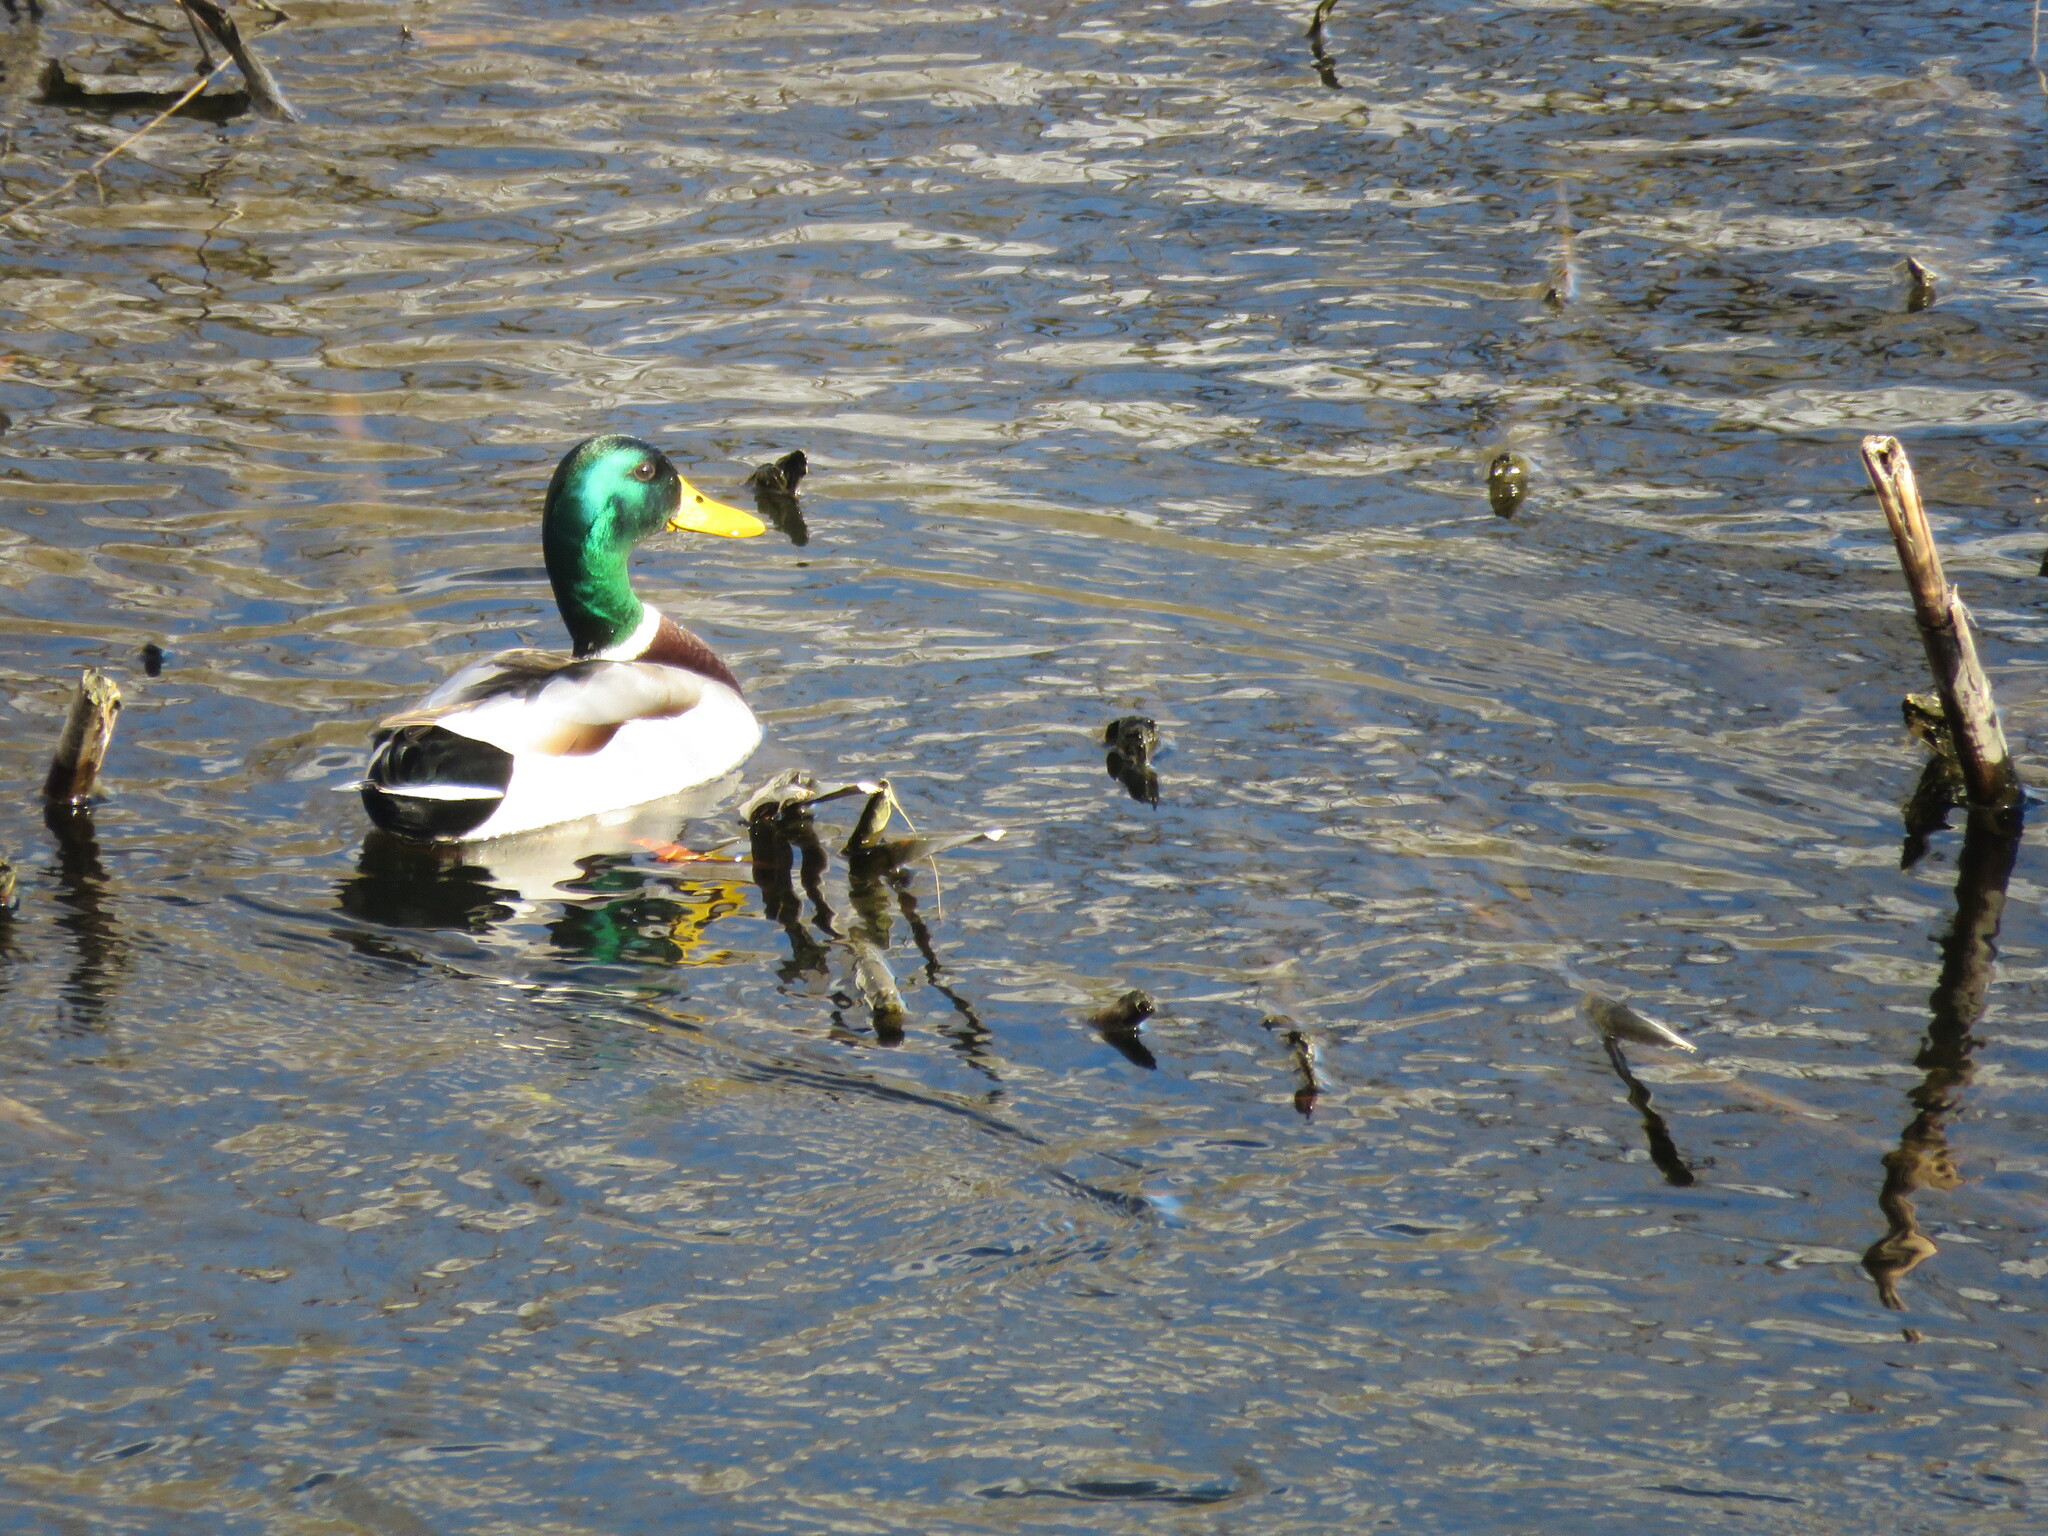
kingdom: Animalia
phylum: Chordata
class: Aves
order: Anseriformes
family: Anatidae
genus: Anas
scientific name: Anas platyrhynchos
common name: Mallard
